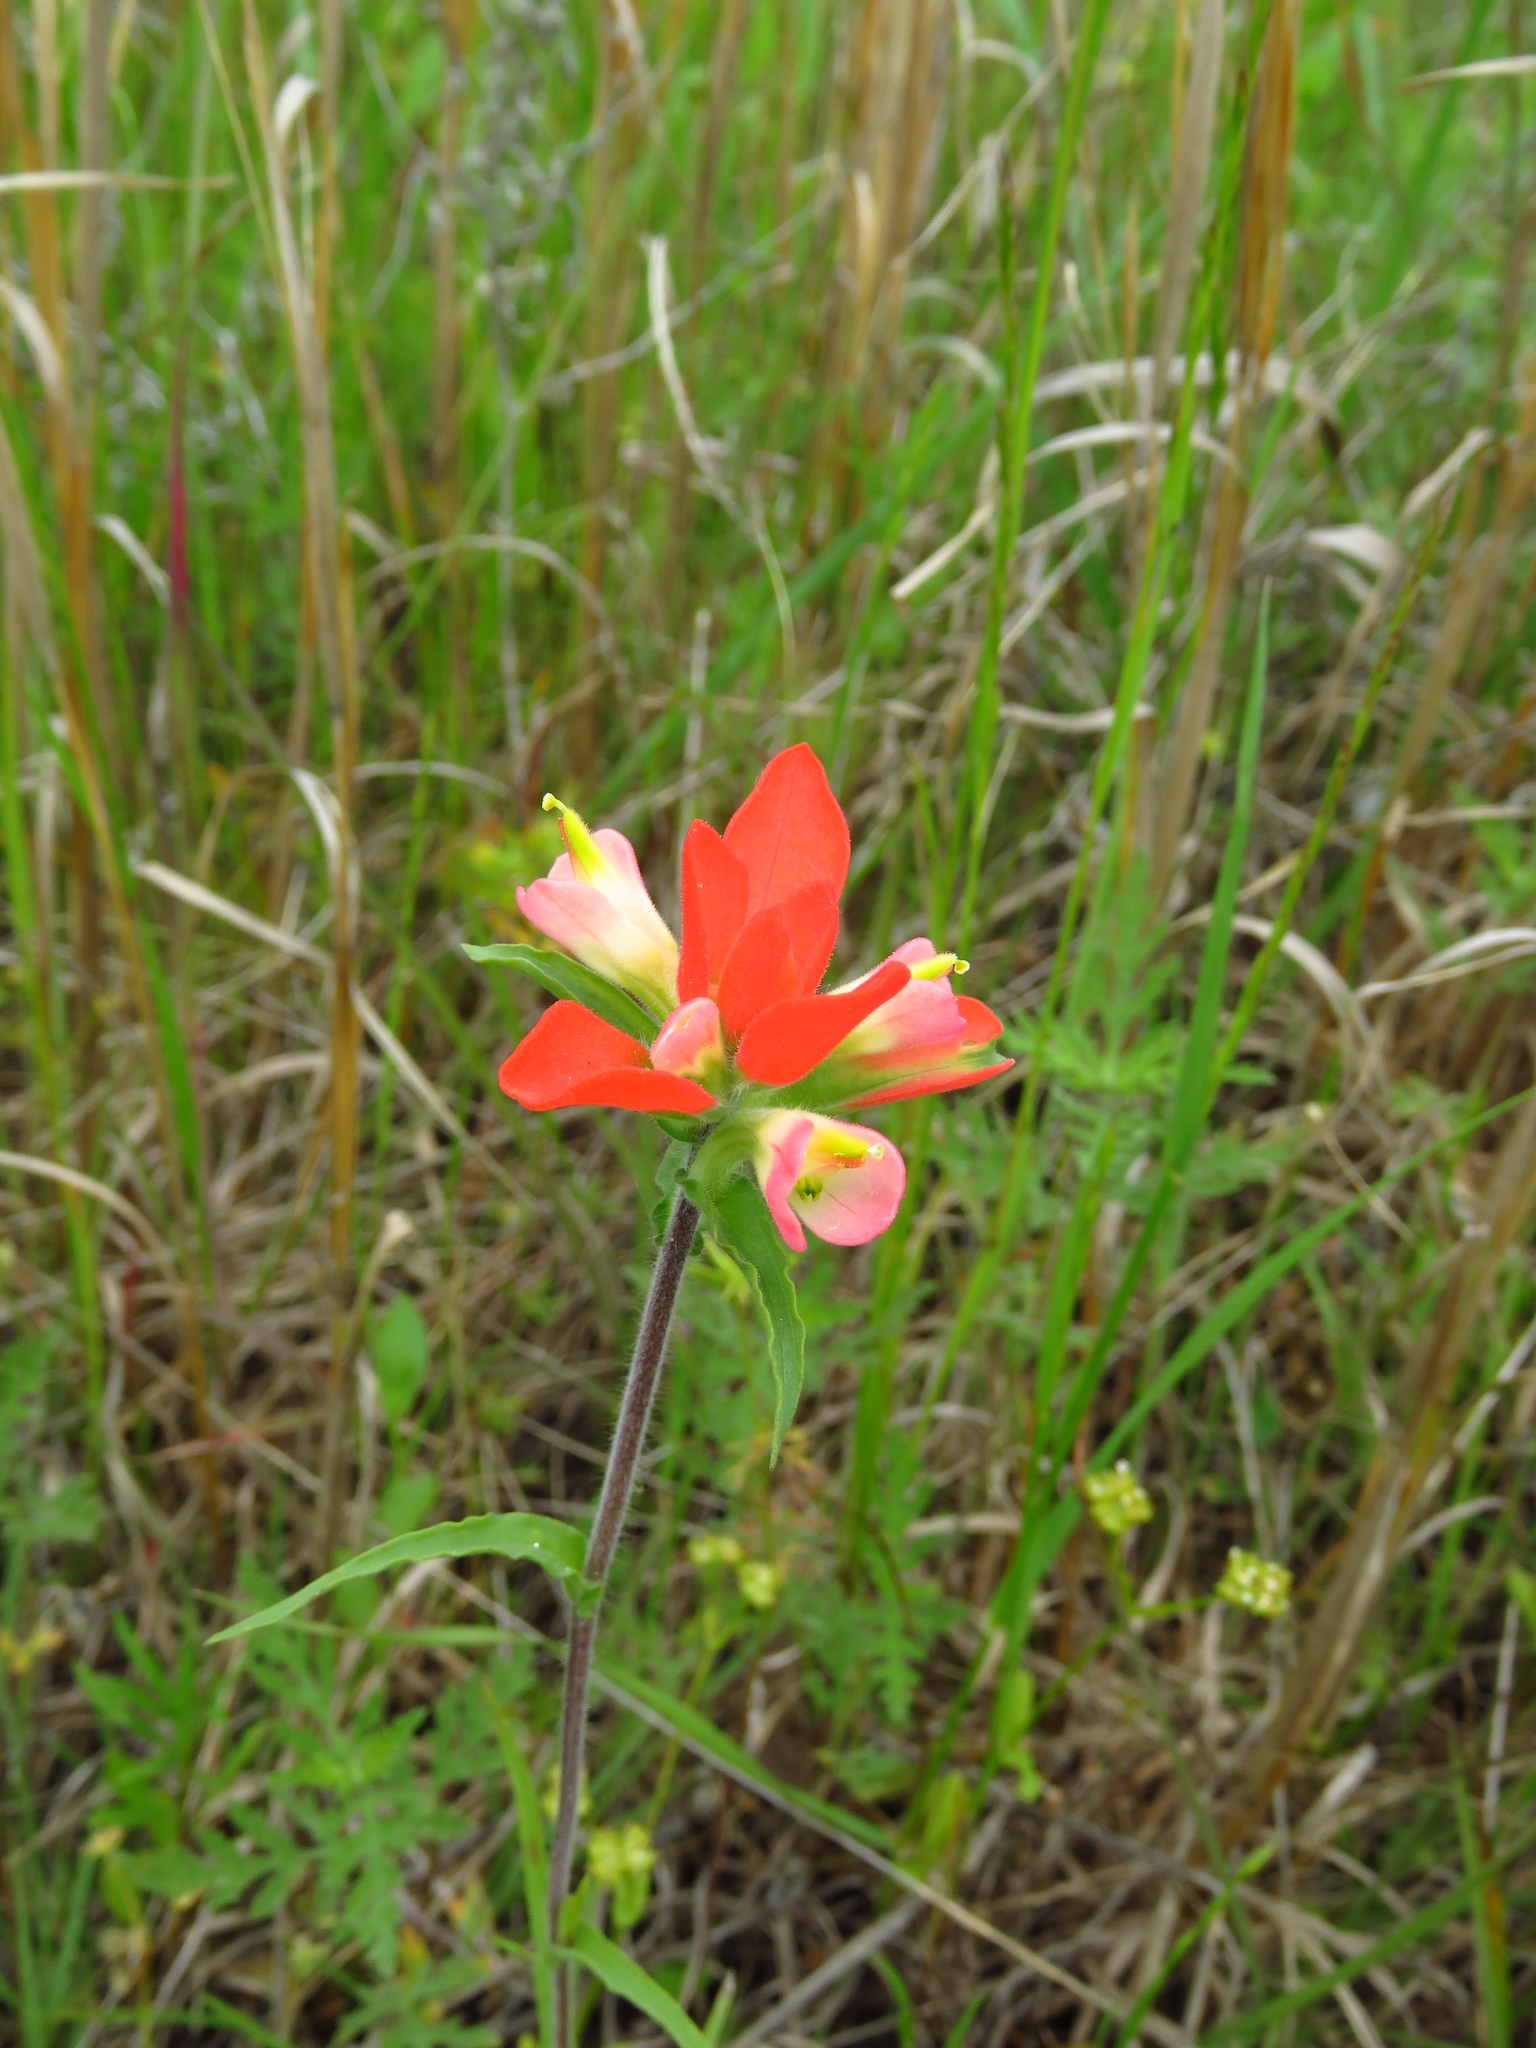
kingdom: Plantae
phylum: Tracheophyta
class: Magnoliopsida
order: Lamiales
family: Orobanchaceae
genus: Castilleja
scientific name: Castilleja indivisa
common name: Texas paintbrush
